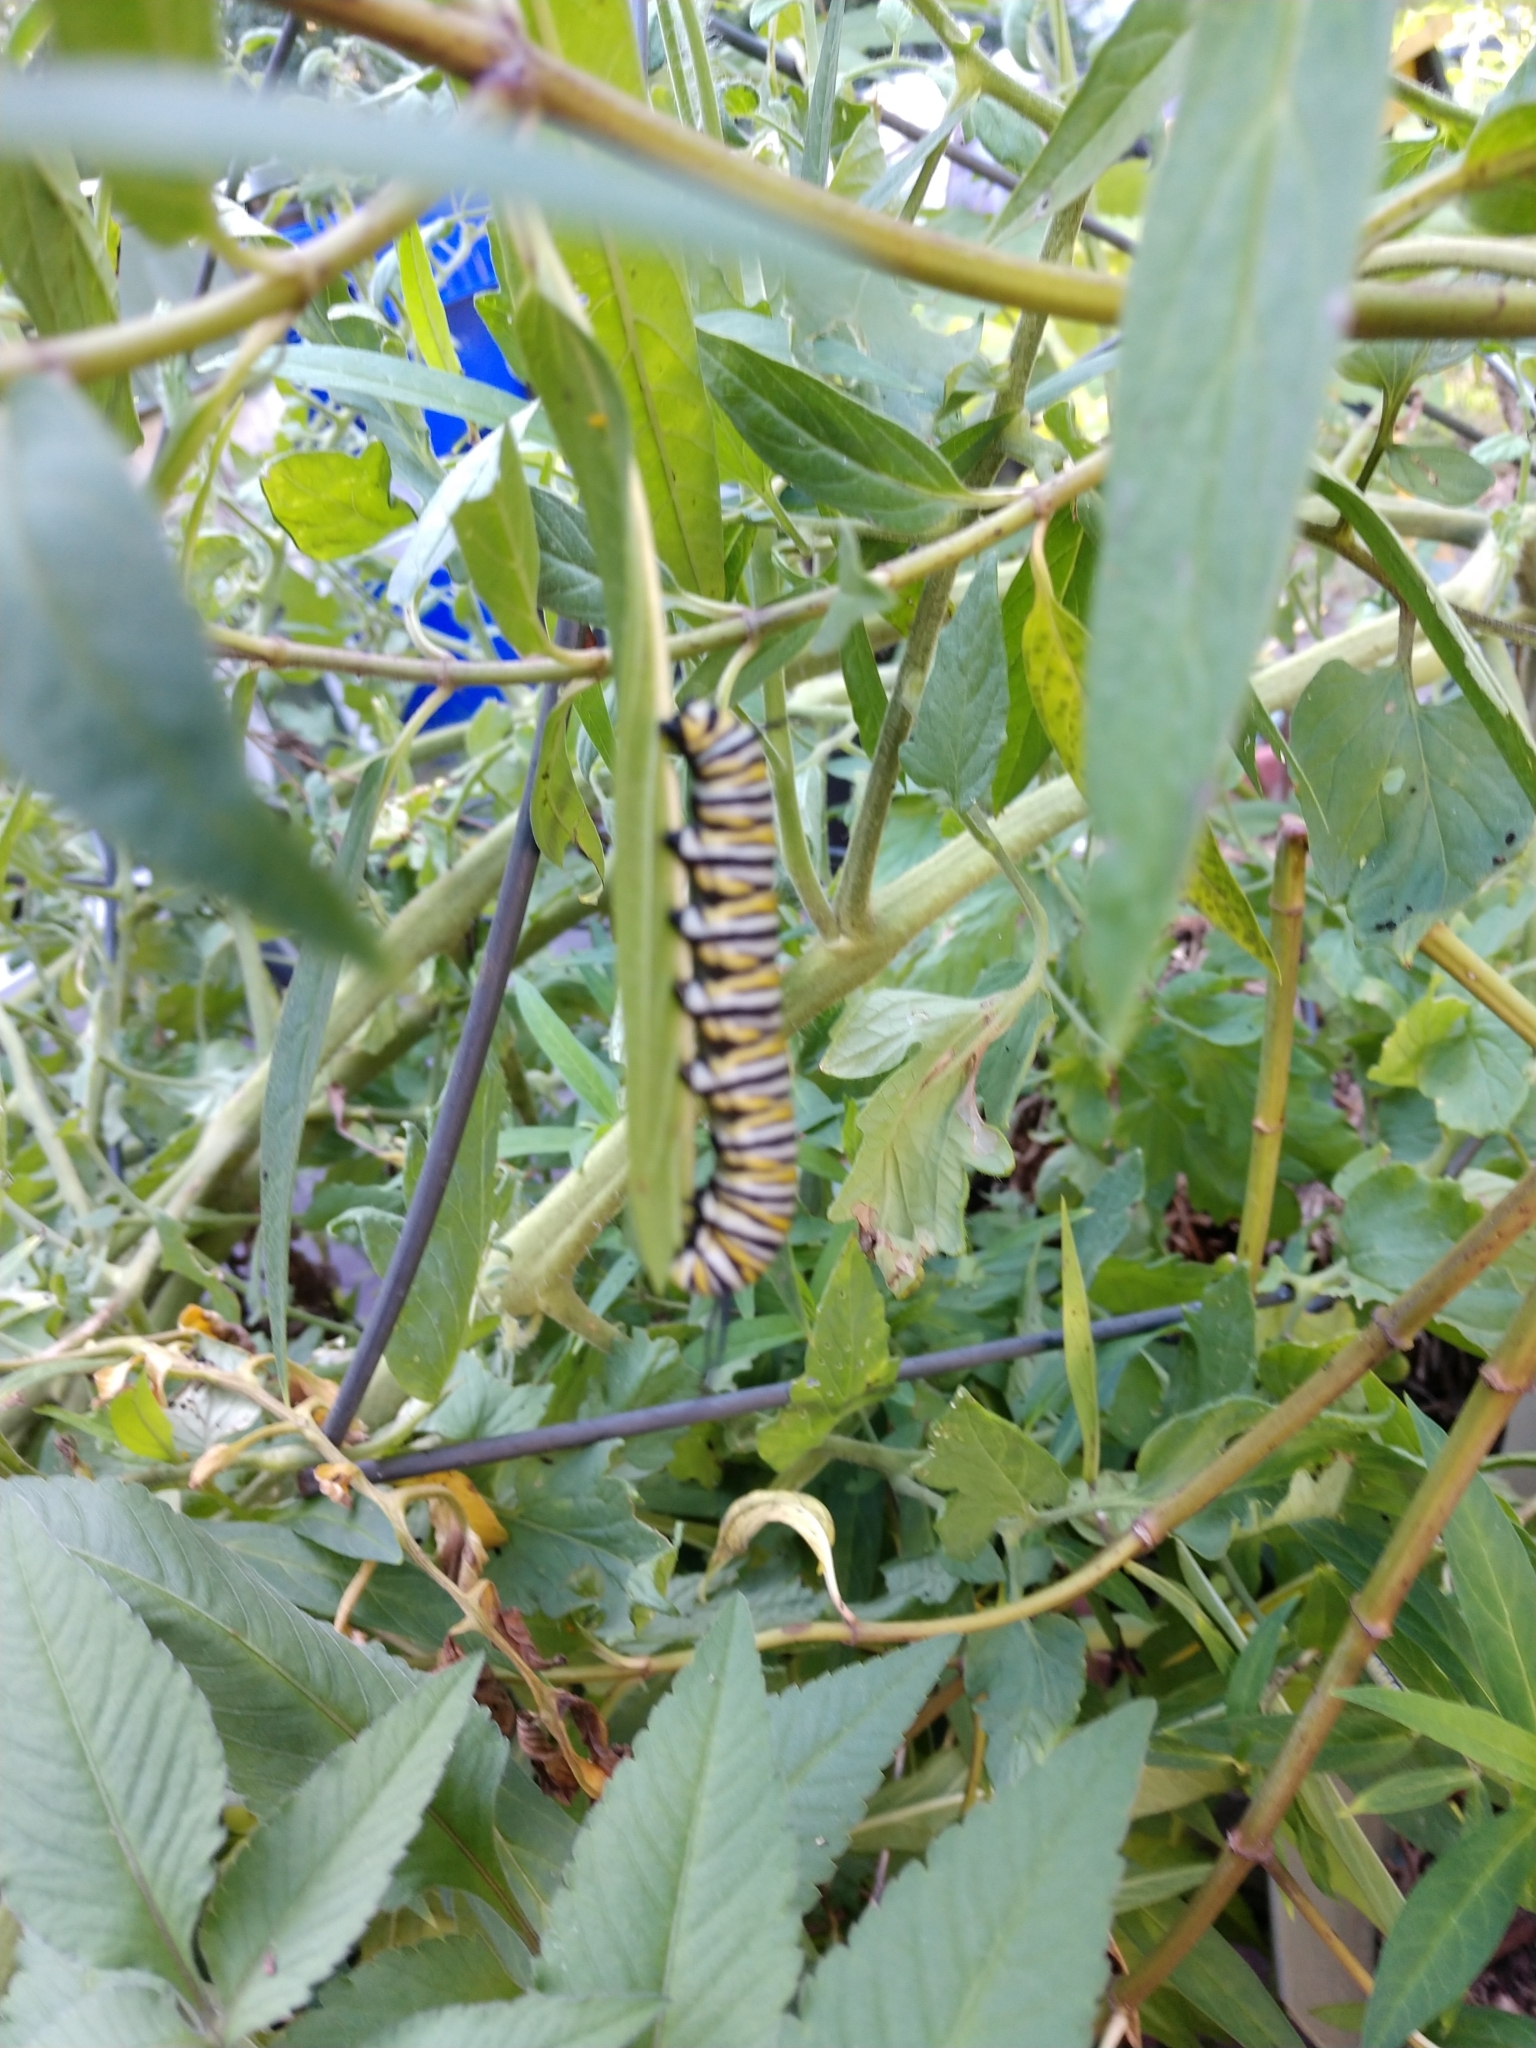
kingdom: Animalia
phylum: Arthropoda
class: Insecta
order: Lepidoptera
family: Nymphalidae
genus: Danaus
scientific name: Danaus plexippus
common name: Monarch
